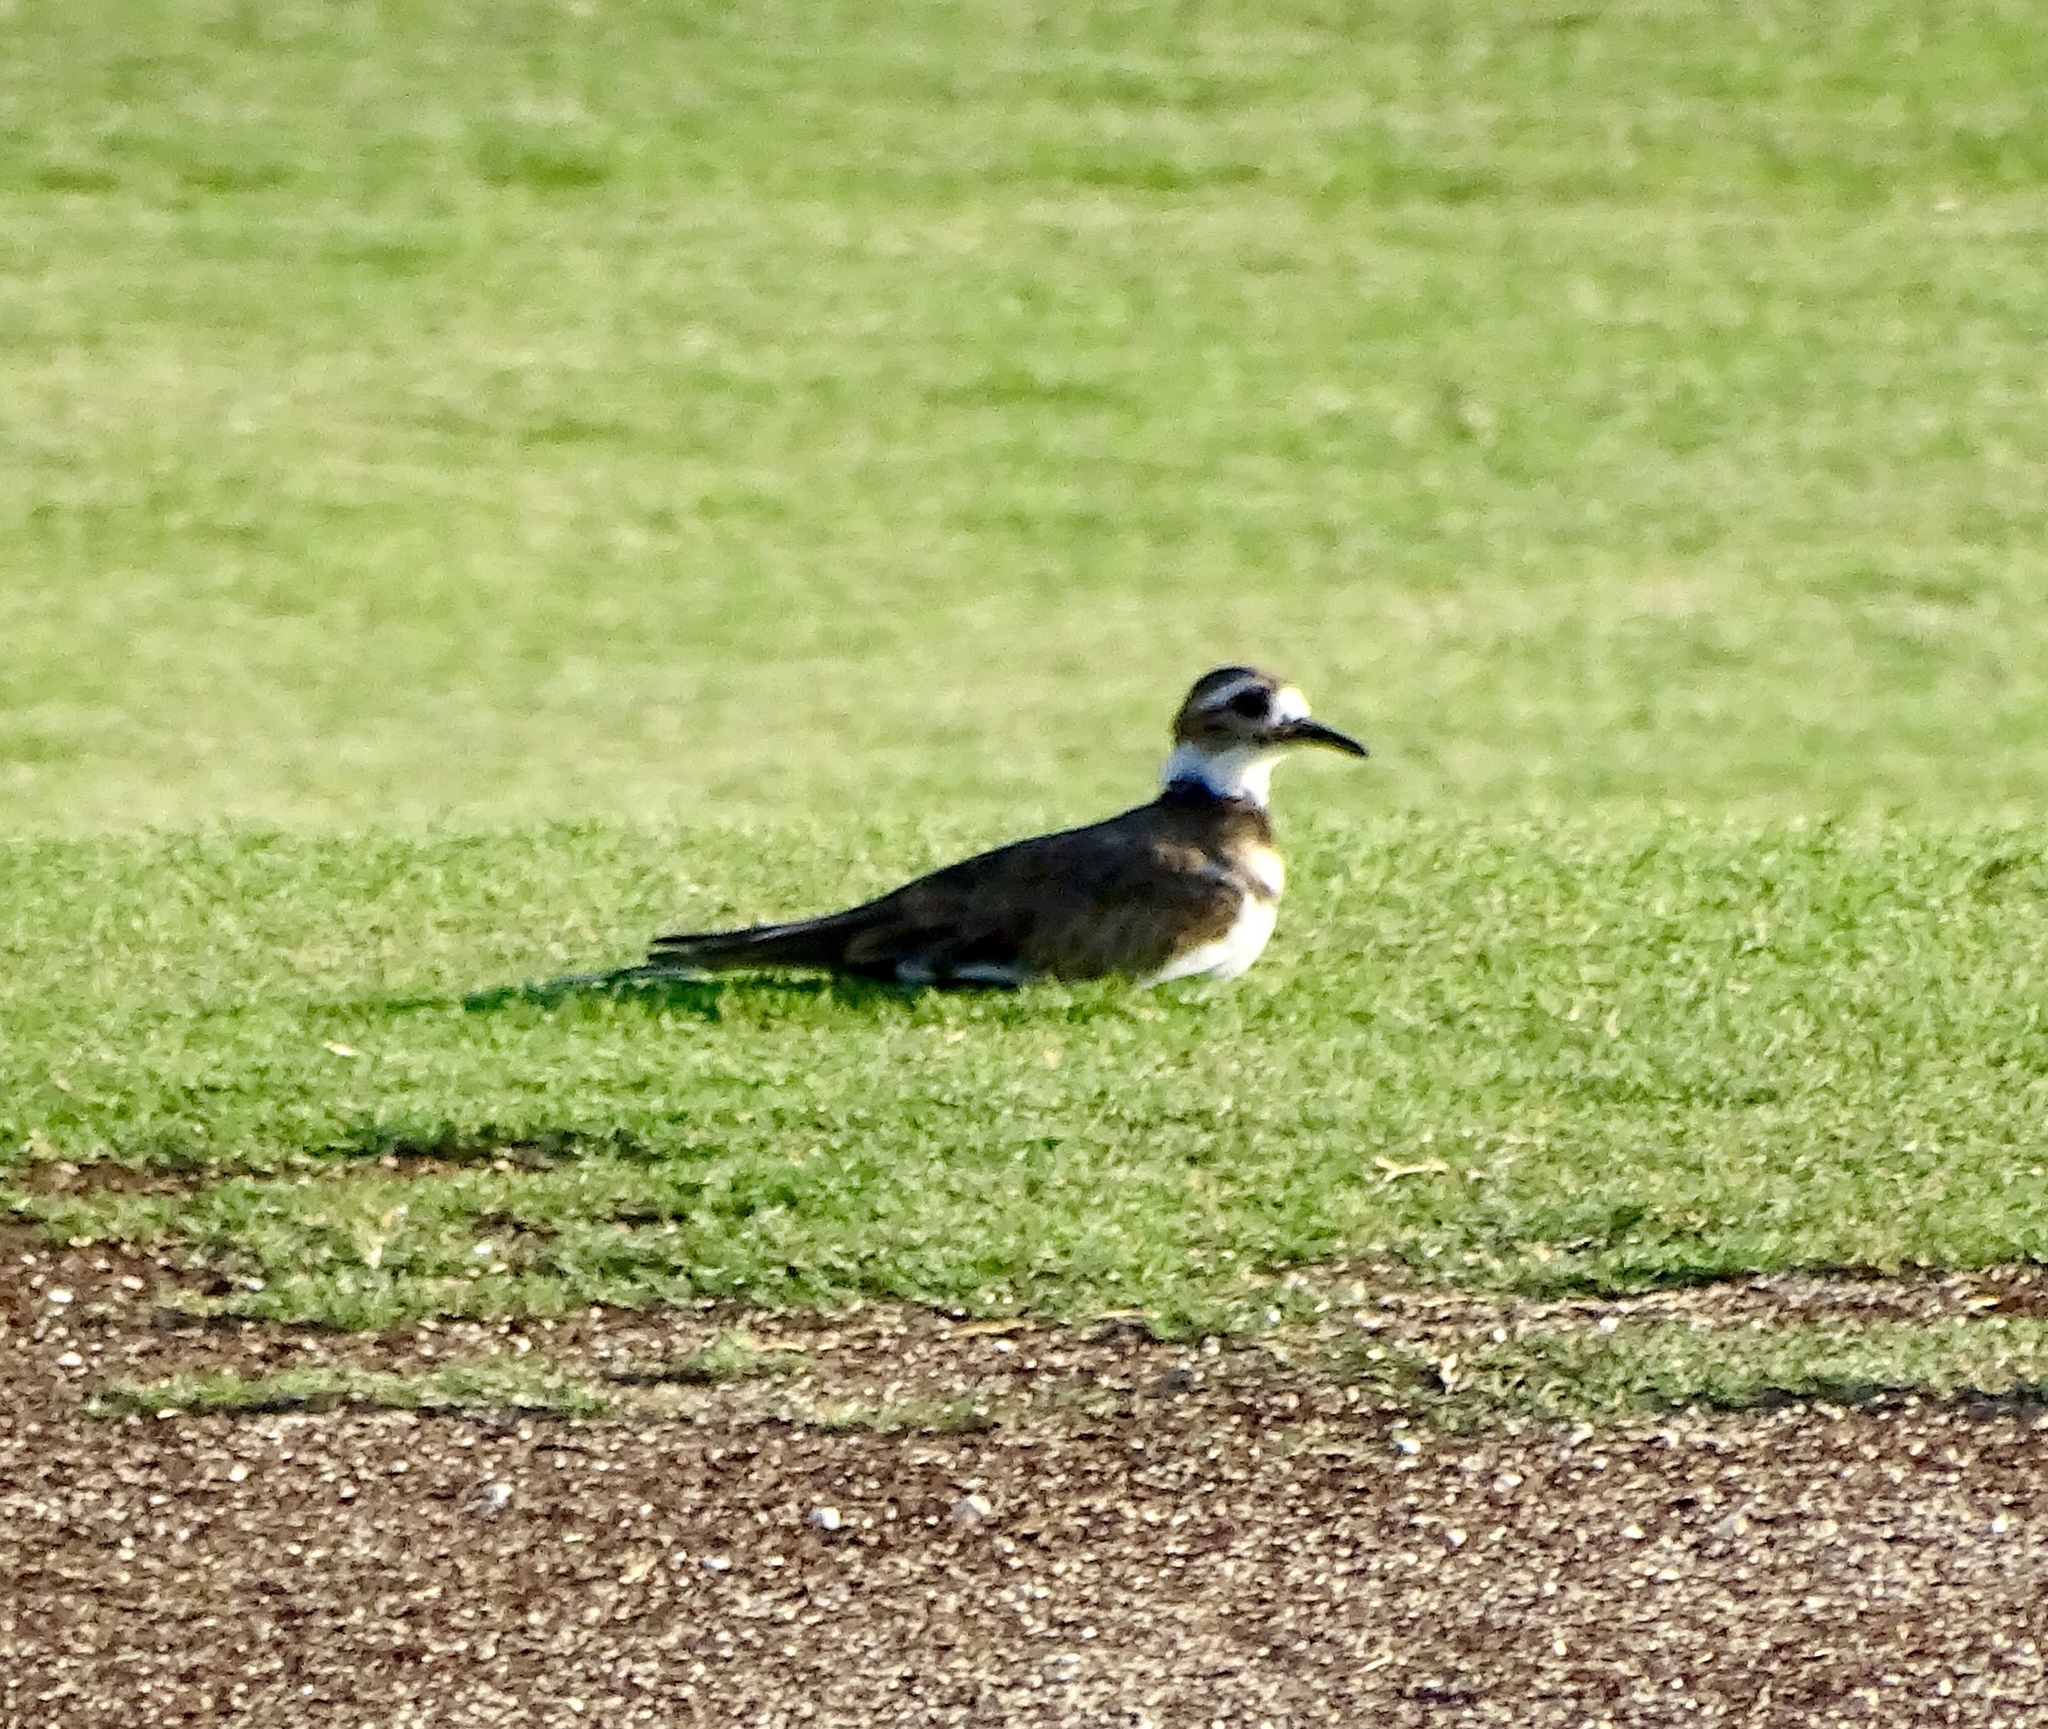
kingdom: Animalia
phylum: Chordata
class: Aves
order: Charadriiformes
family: Charadriidae
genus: Charadrius
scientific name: Charadrius vociferus
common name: Killdeer
